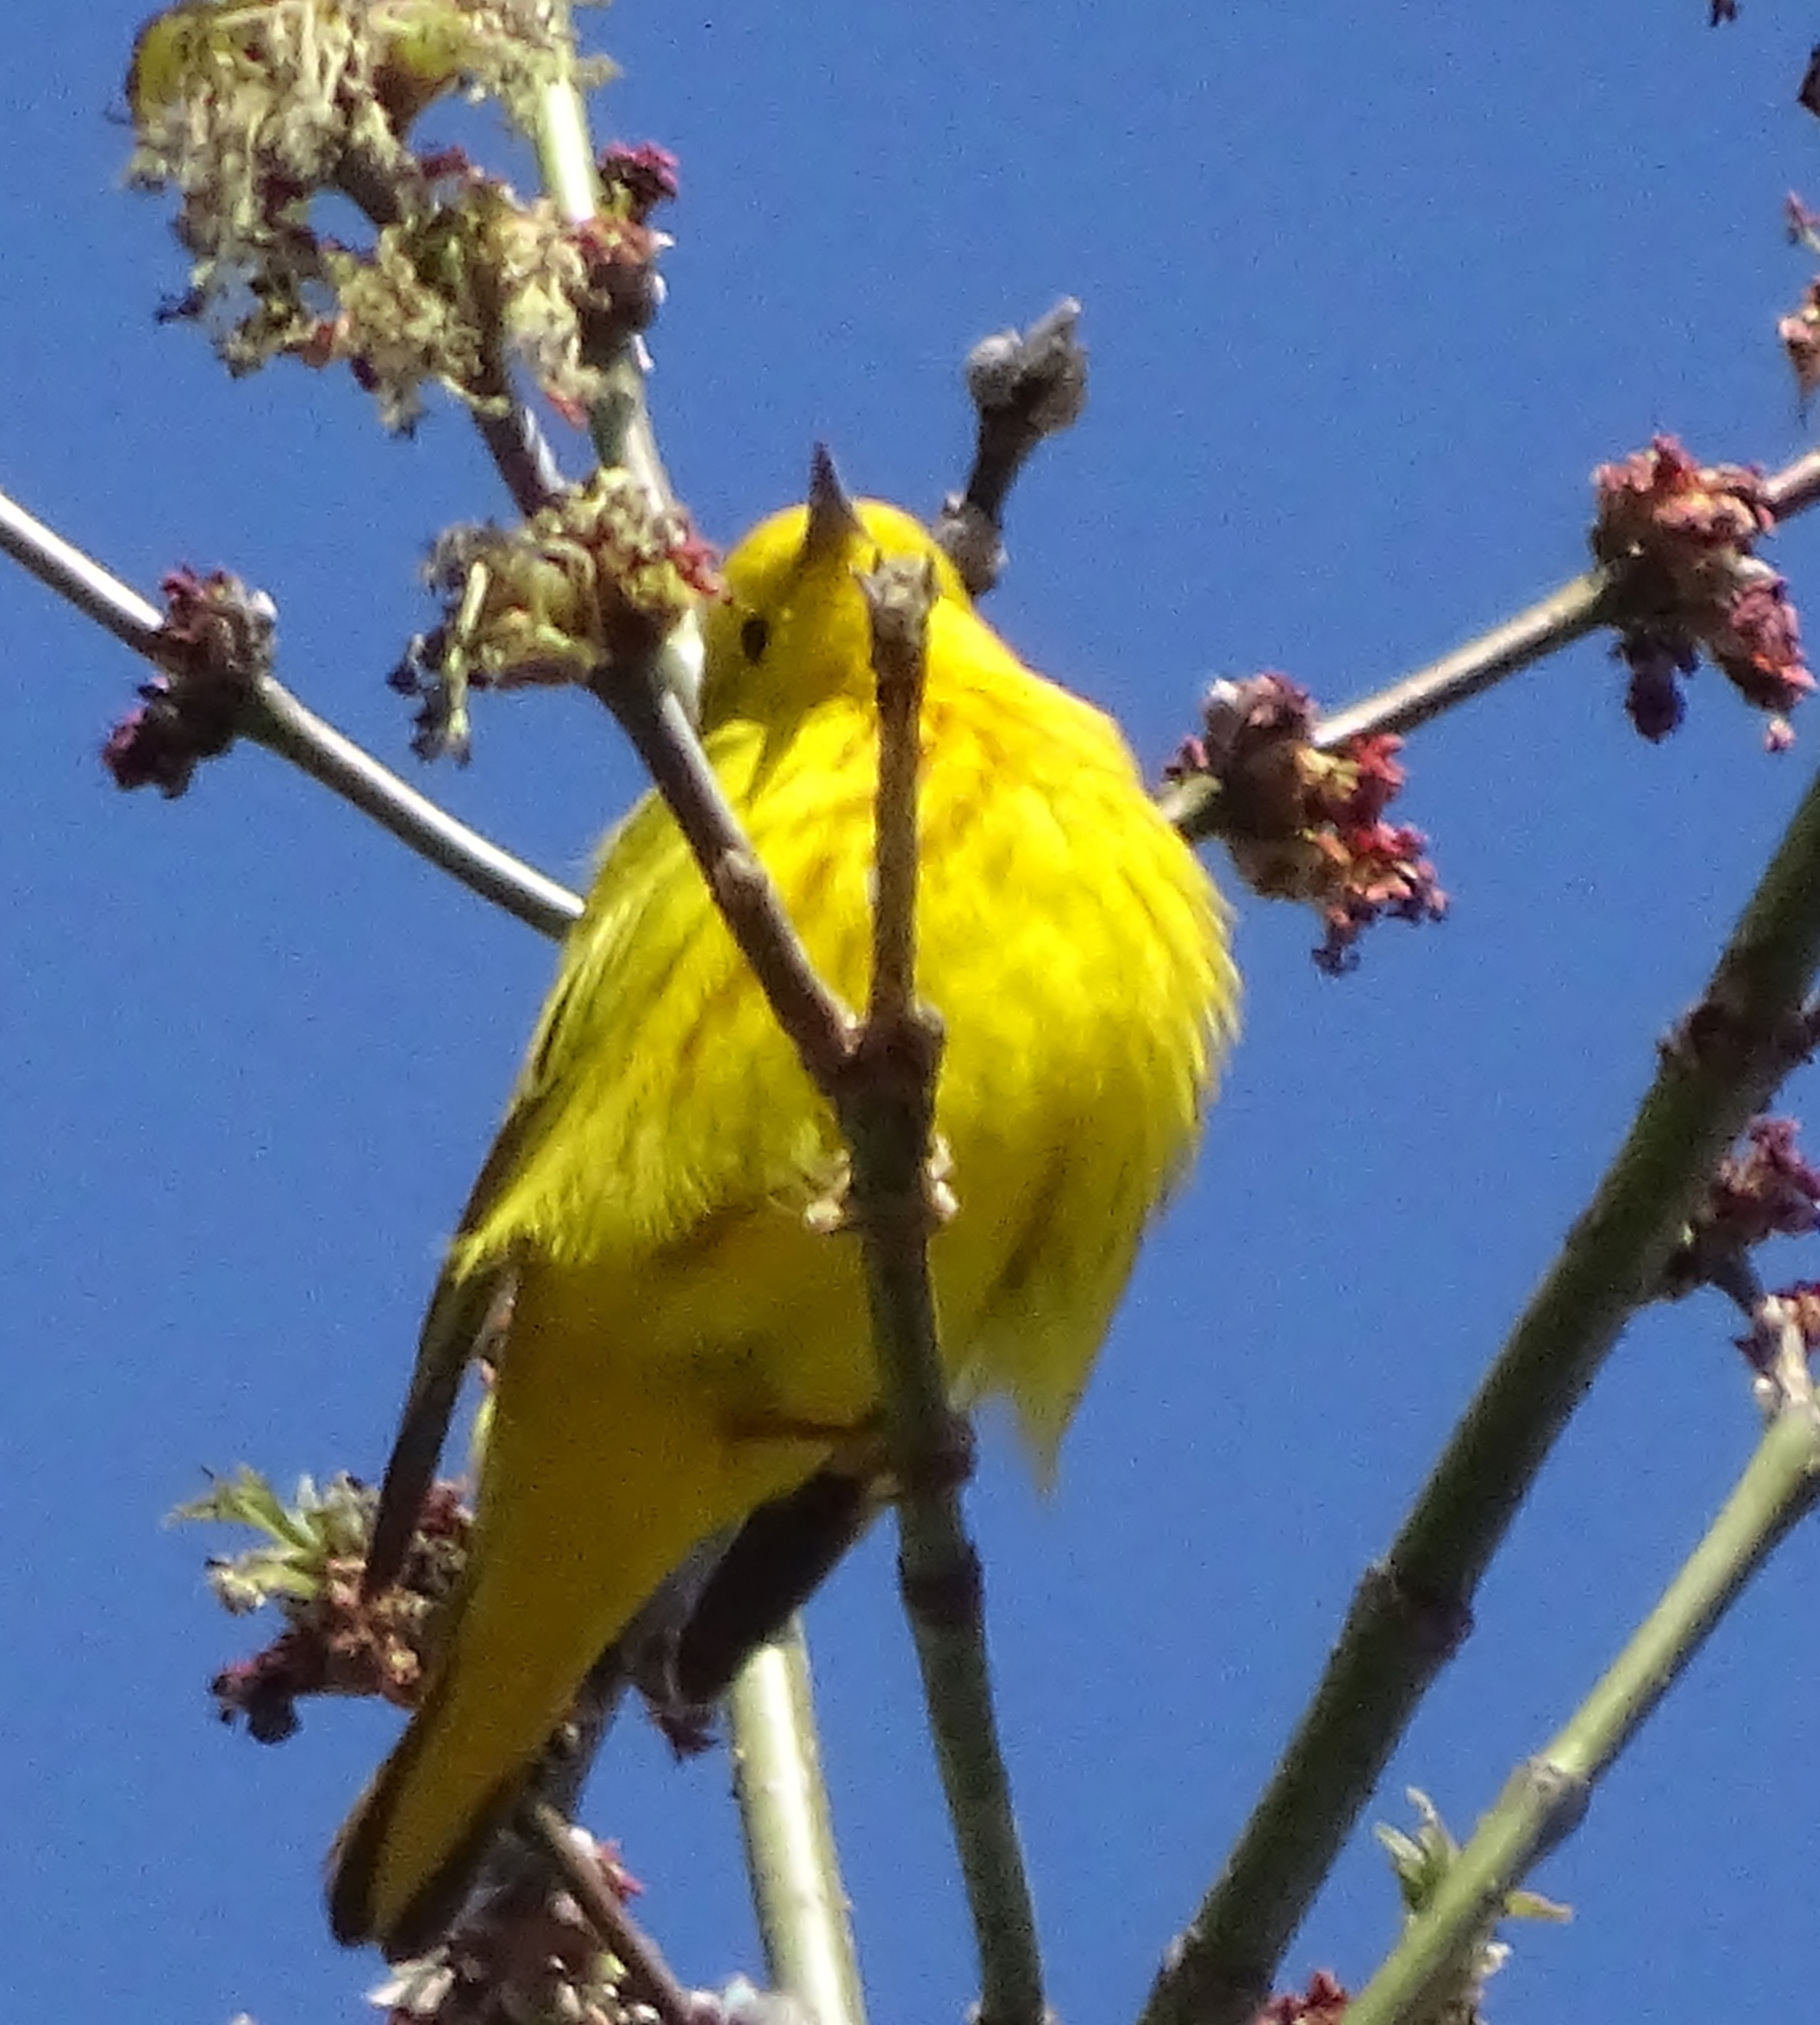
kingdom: Animalia
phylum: Chordata
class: Aves
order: Passeriformes
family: Parulidae
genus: Setophaga
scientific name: Setophaga petechia
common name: Yellow warbler
